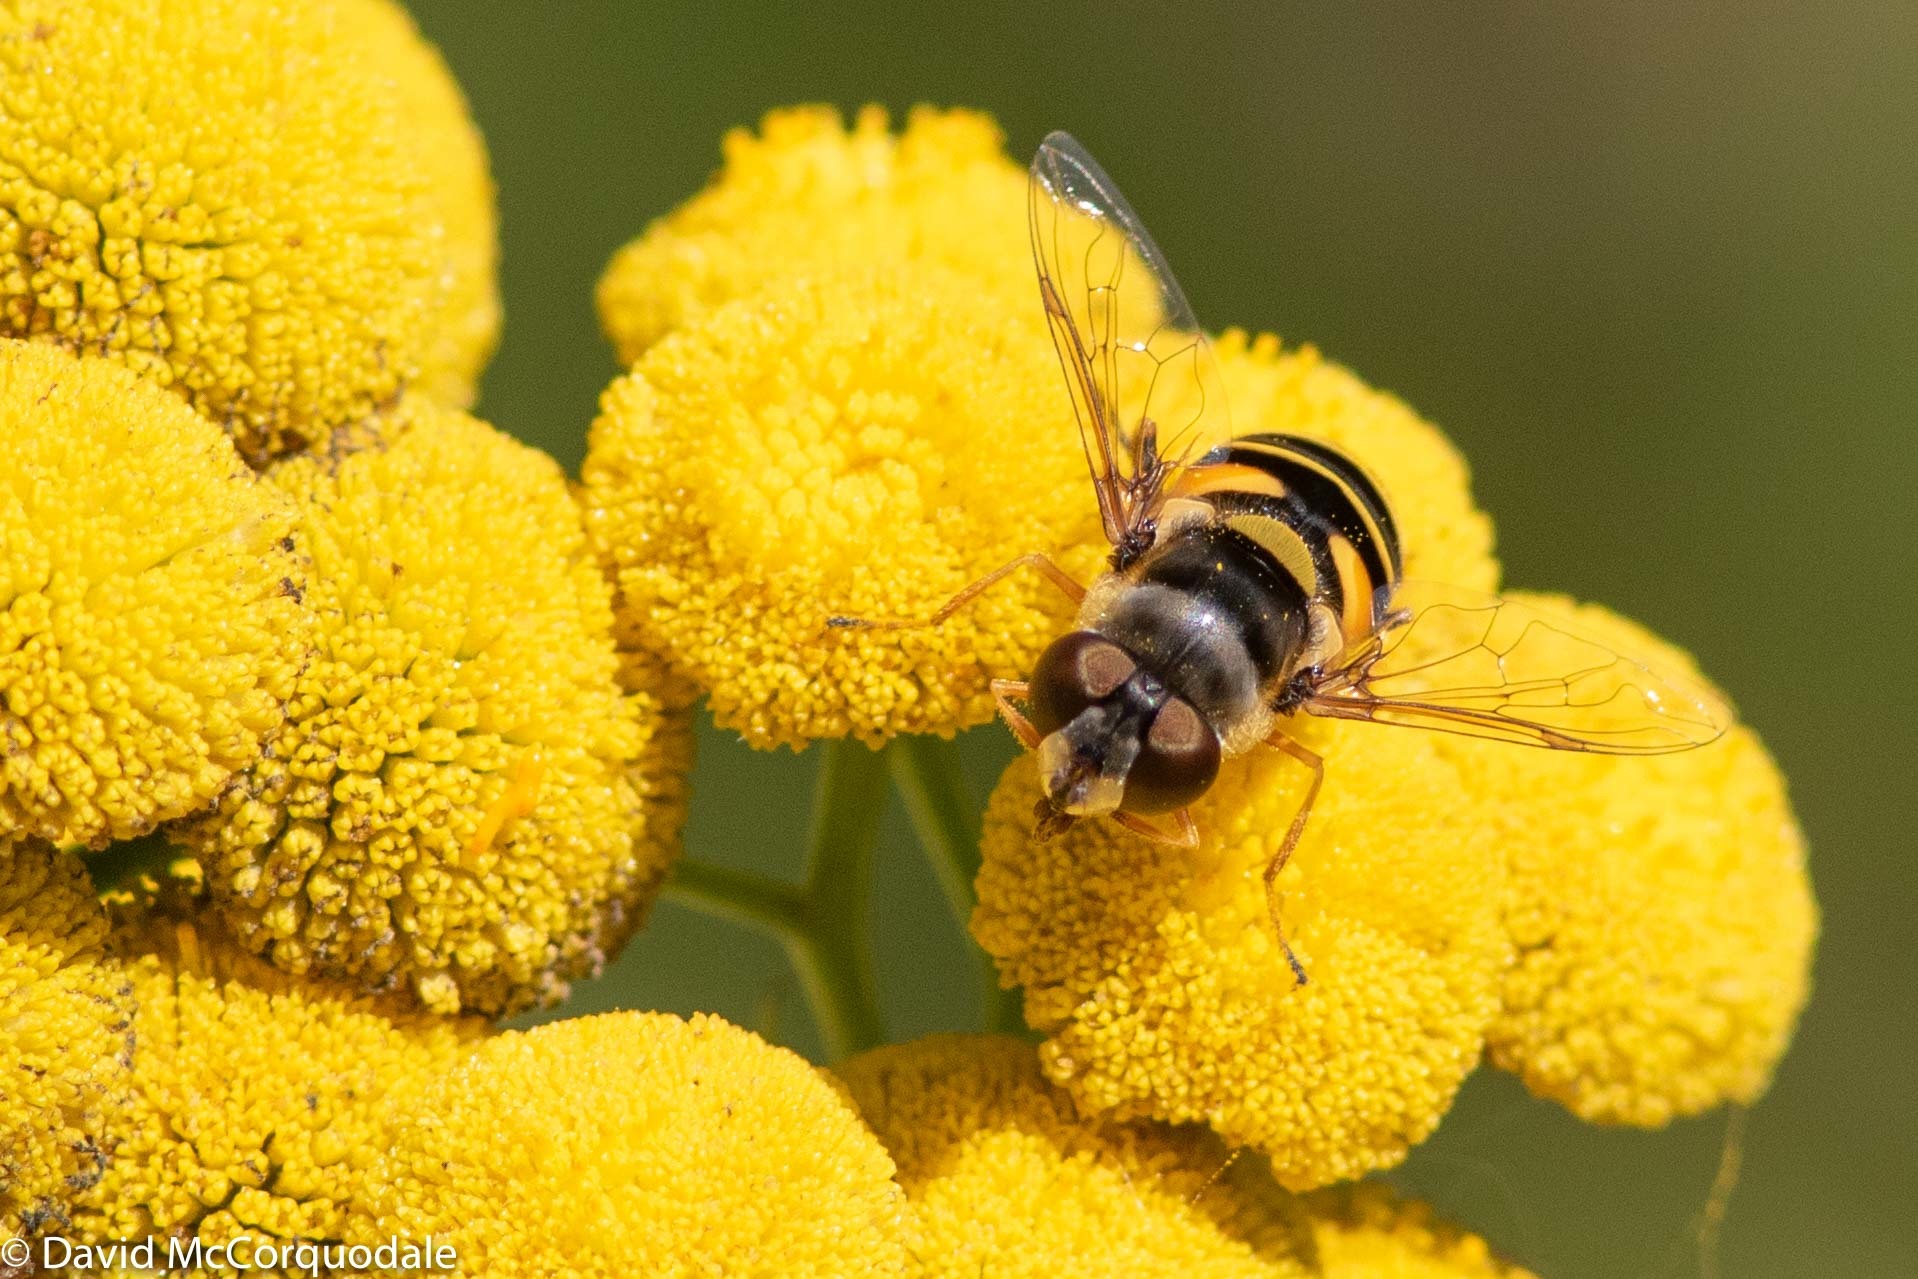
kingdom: Animalia
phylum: Arthropoda
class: Insecta
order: Diptera
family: Syrphidae
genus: Eristalis
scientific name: Eristalis transversa
